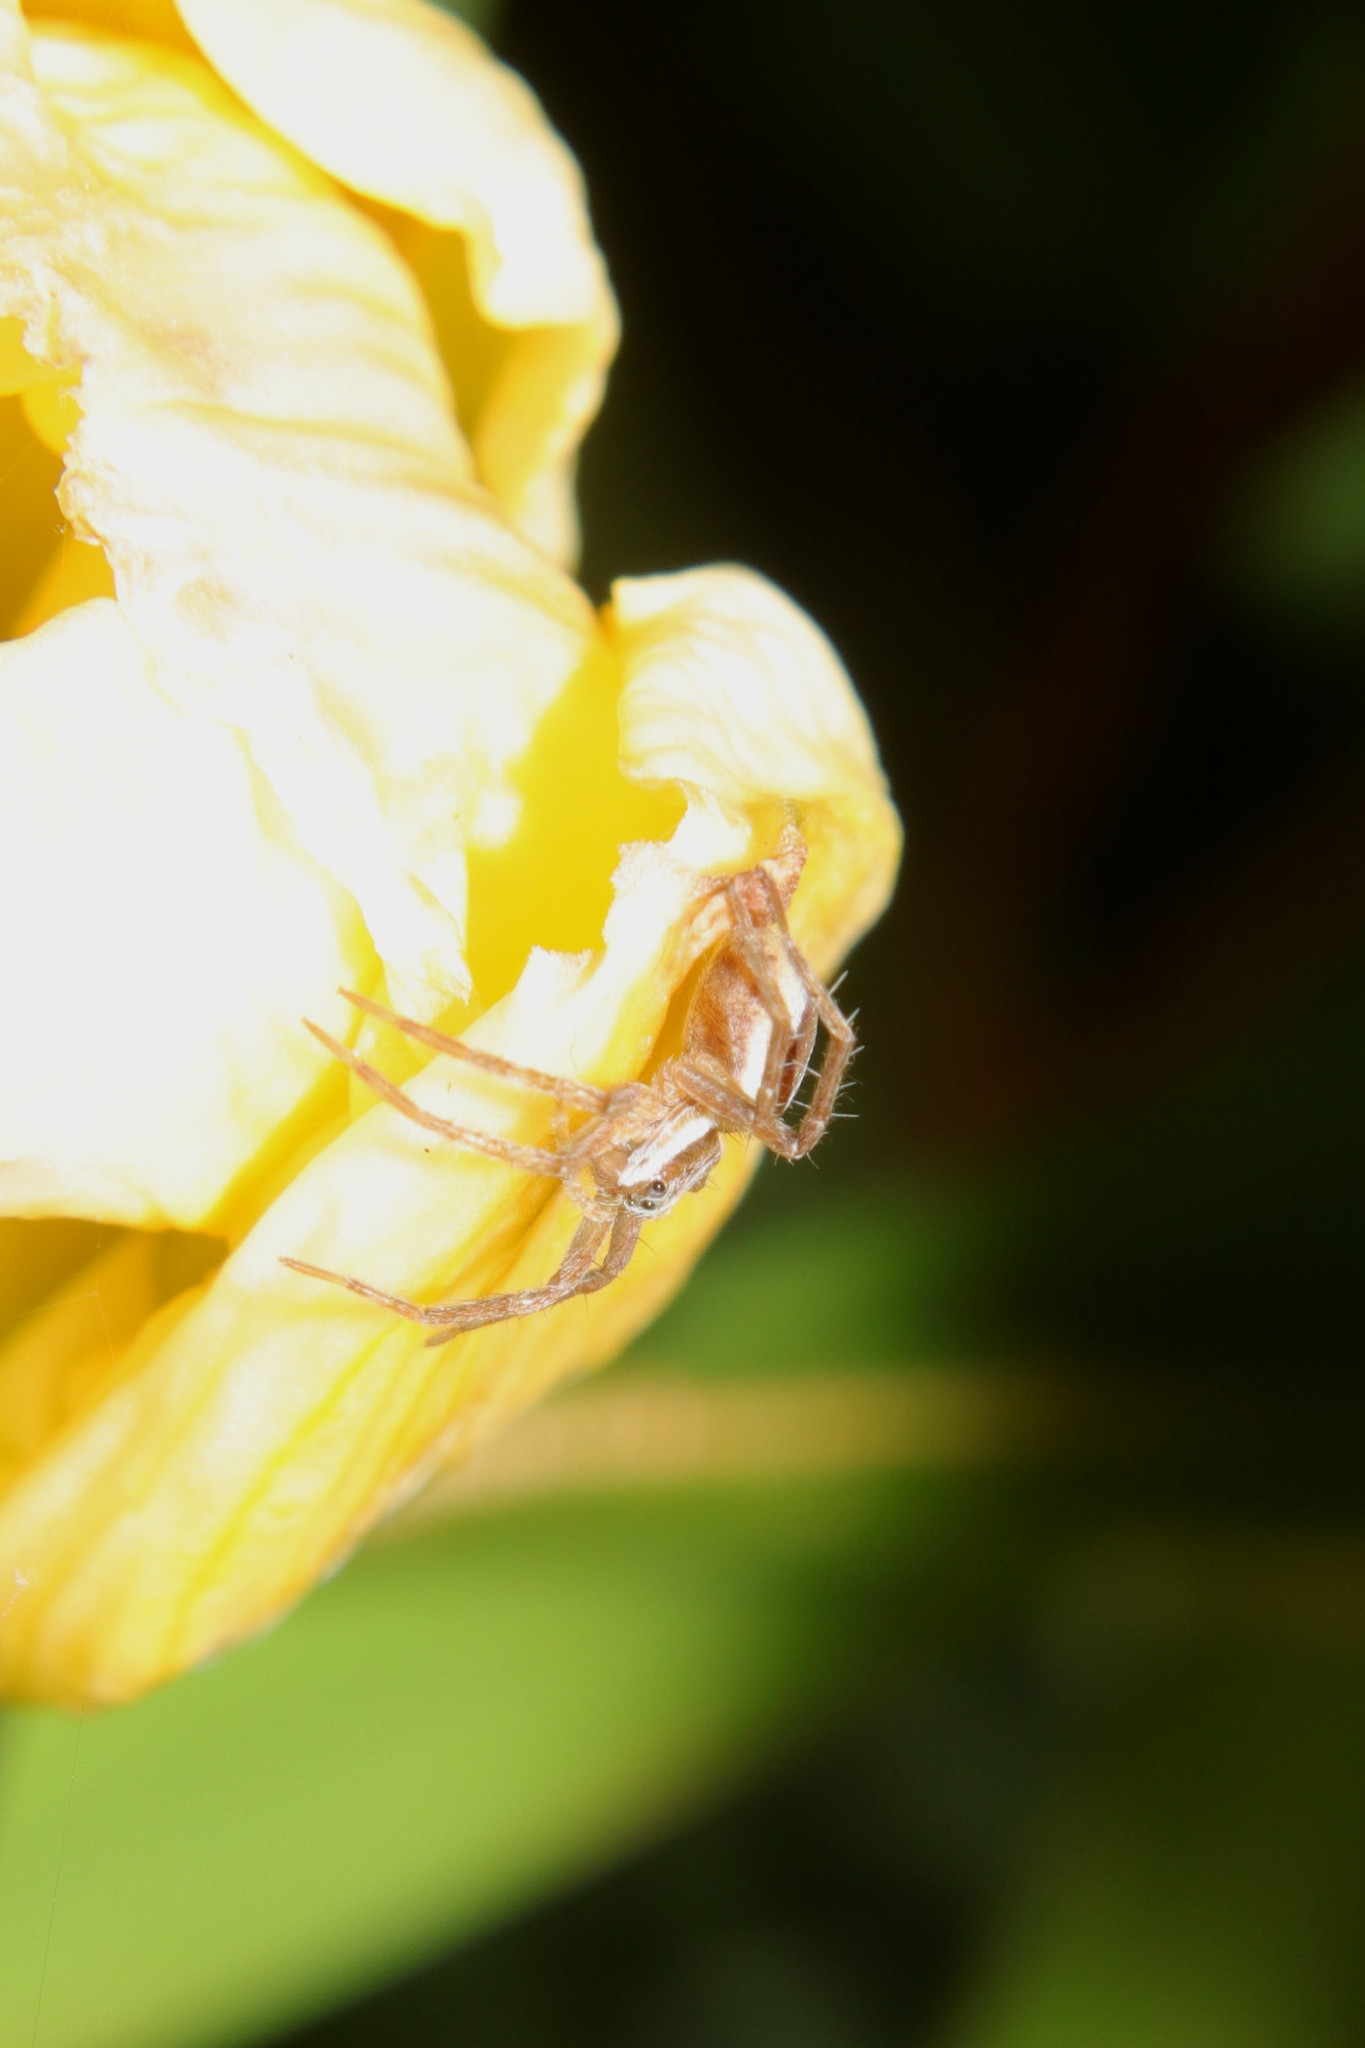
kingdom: Animalia
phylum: Arthropoda
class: Arachnida
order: Araneae
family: Pisauridae
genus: Dolomedes
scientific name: Dolomedes minor
